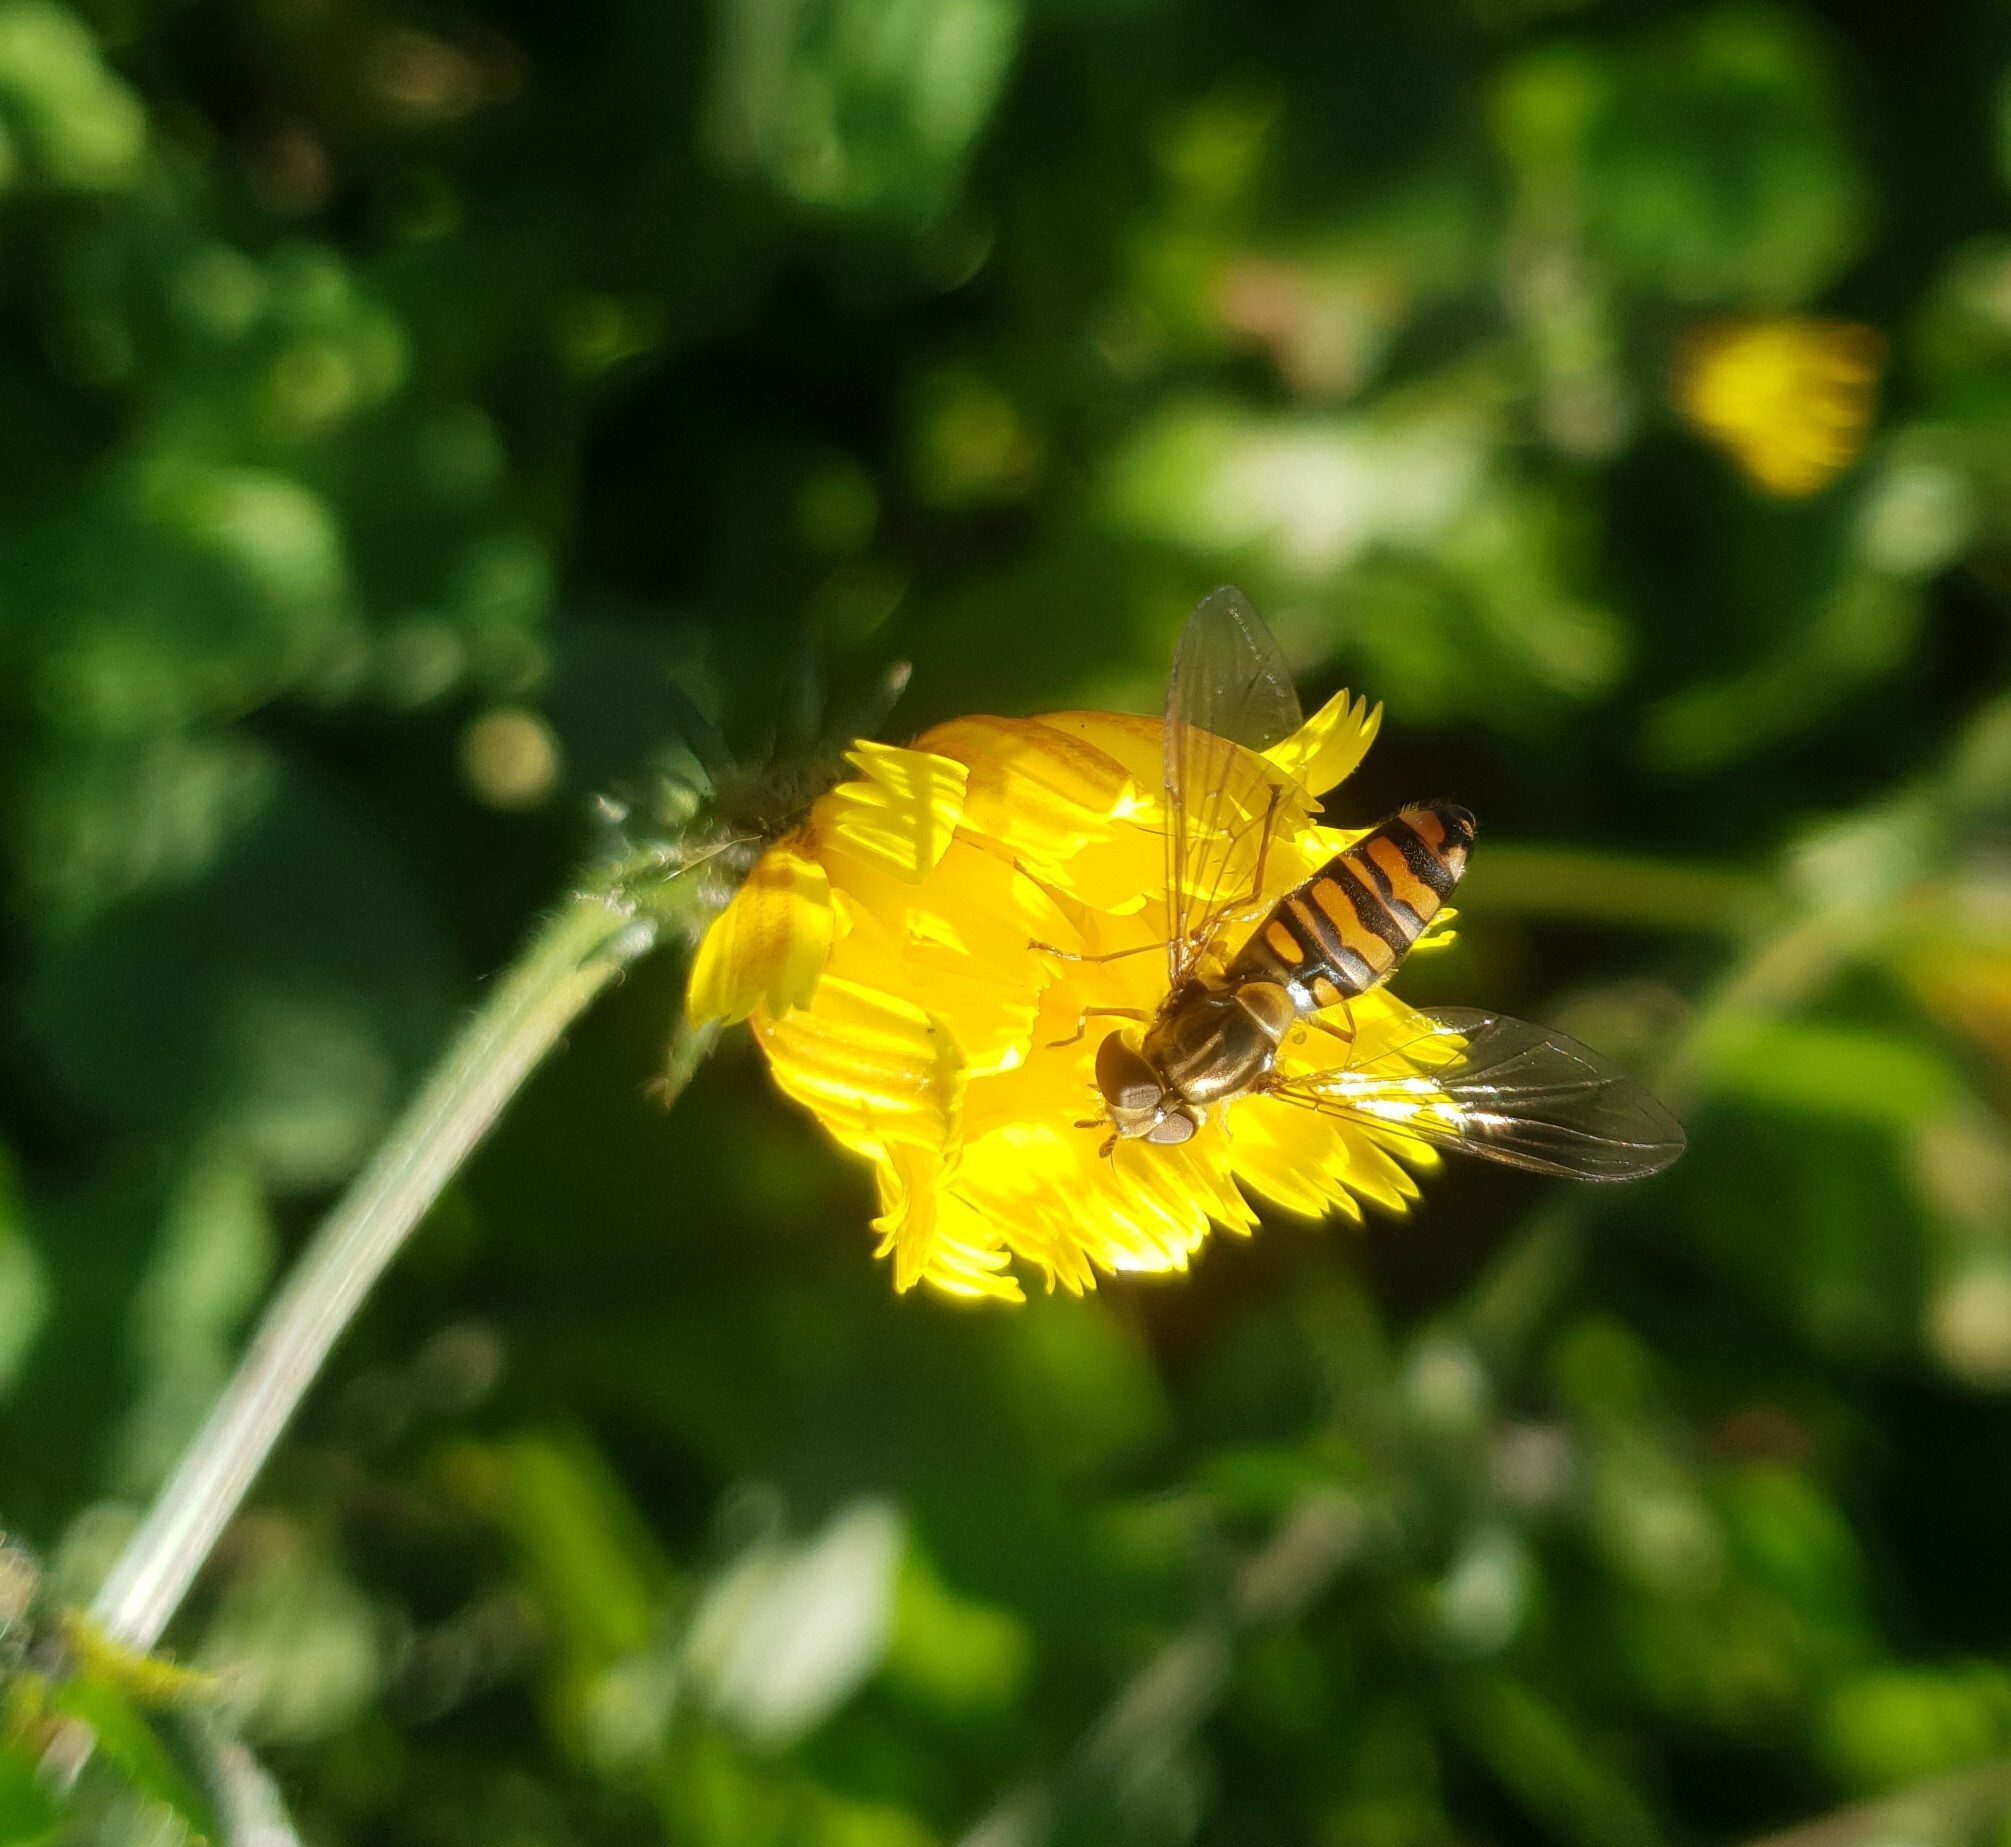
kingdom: Animalia
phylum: Arthropoda
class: Insecta
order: Diptera
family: Syrphidae
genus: Episyrphus
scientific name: Episyrphus balteatus
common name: Marmalade hoverfly
